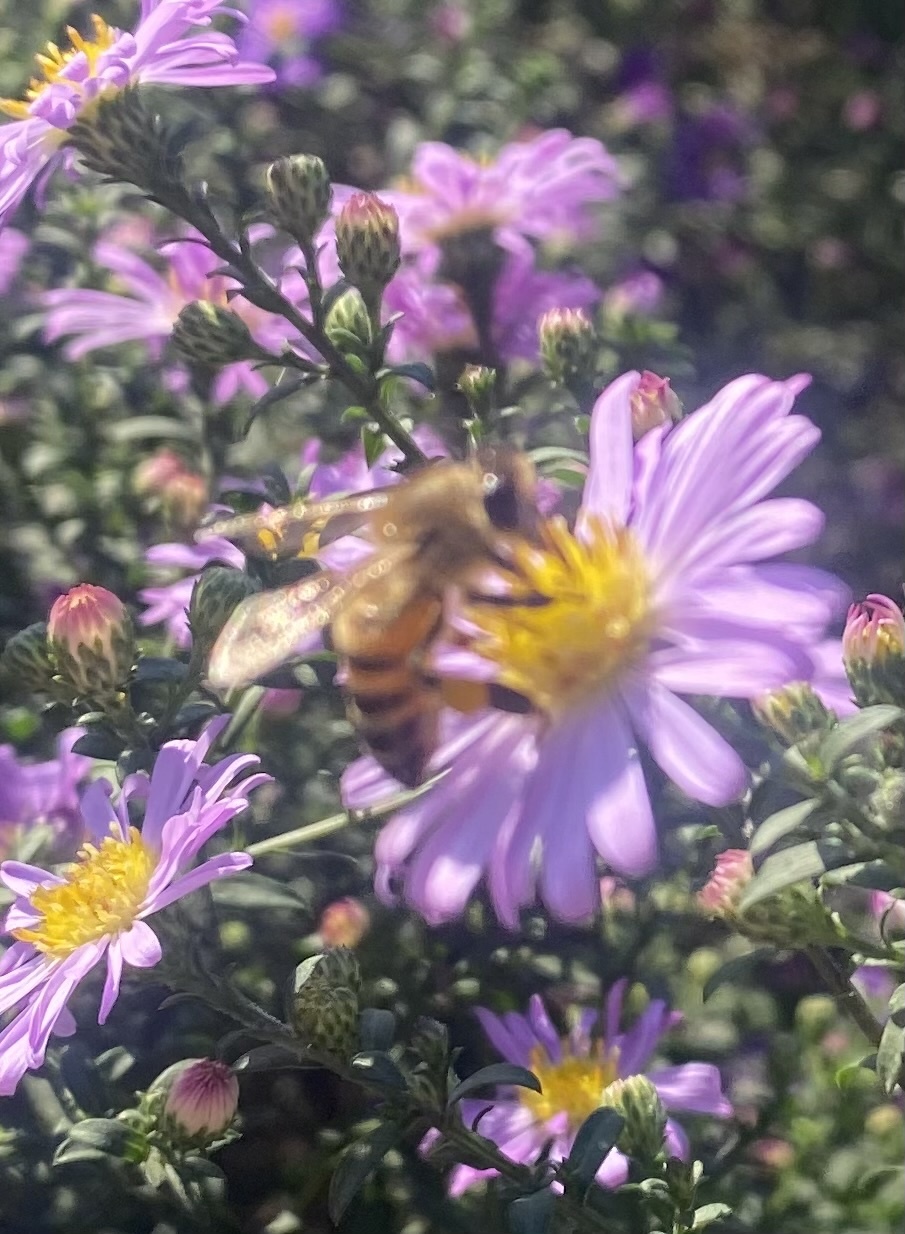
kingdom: Animalia
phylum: Arthropoda
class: Insecta
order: Hymenoptera
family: Apidae
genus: Apis
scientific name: Apis mellifera
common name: Honey bee
